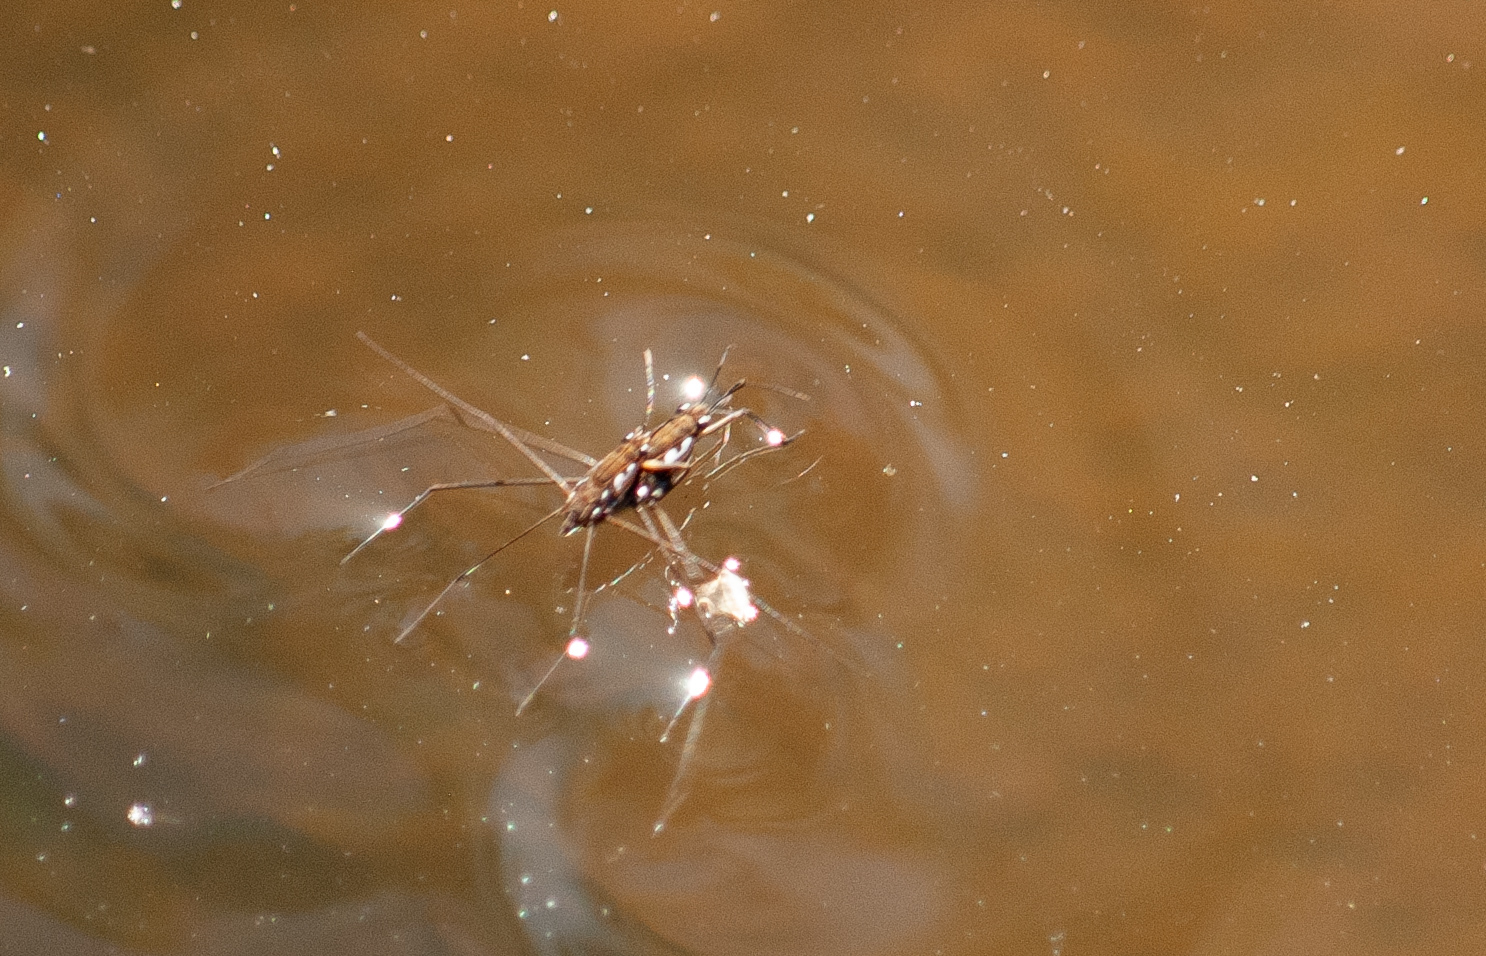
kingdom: Animalia
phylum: Arthropoda
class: Insecta
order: Hemiptera
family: Gerridae
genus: Tenagogerris
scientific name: Tenagogerris euphrosyne
